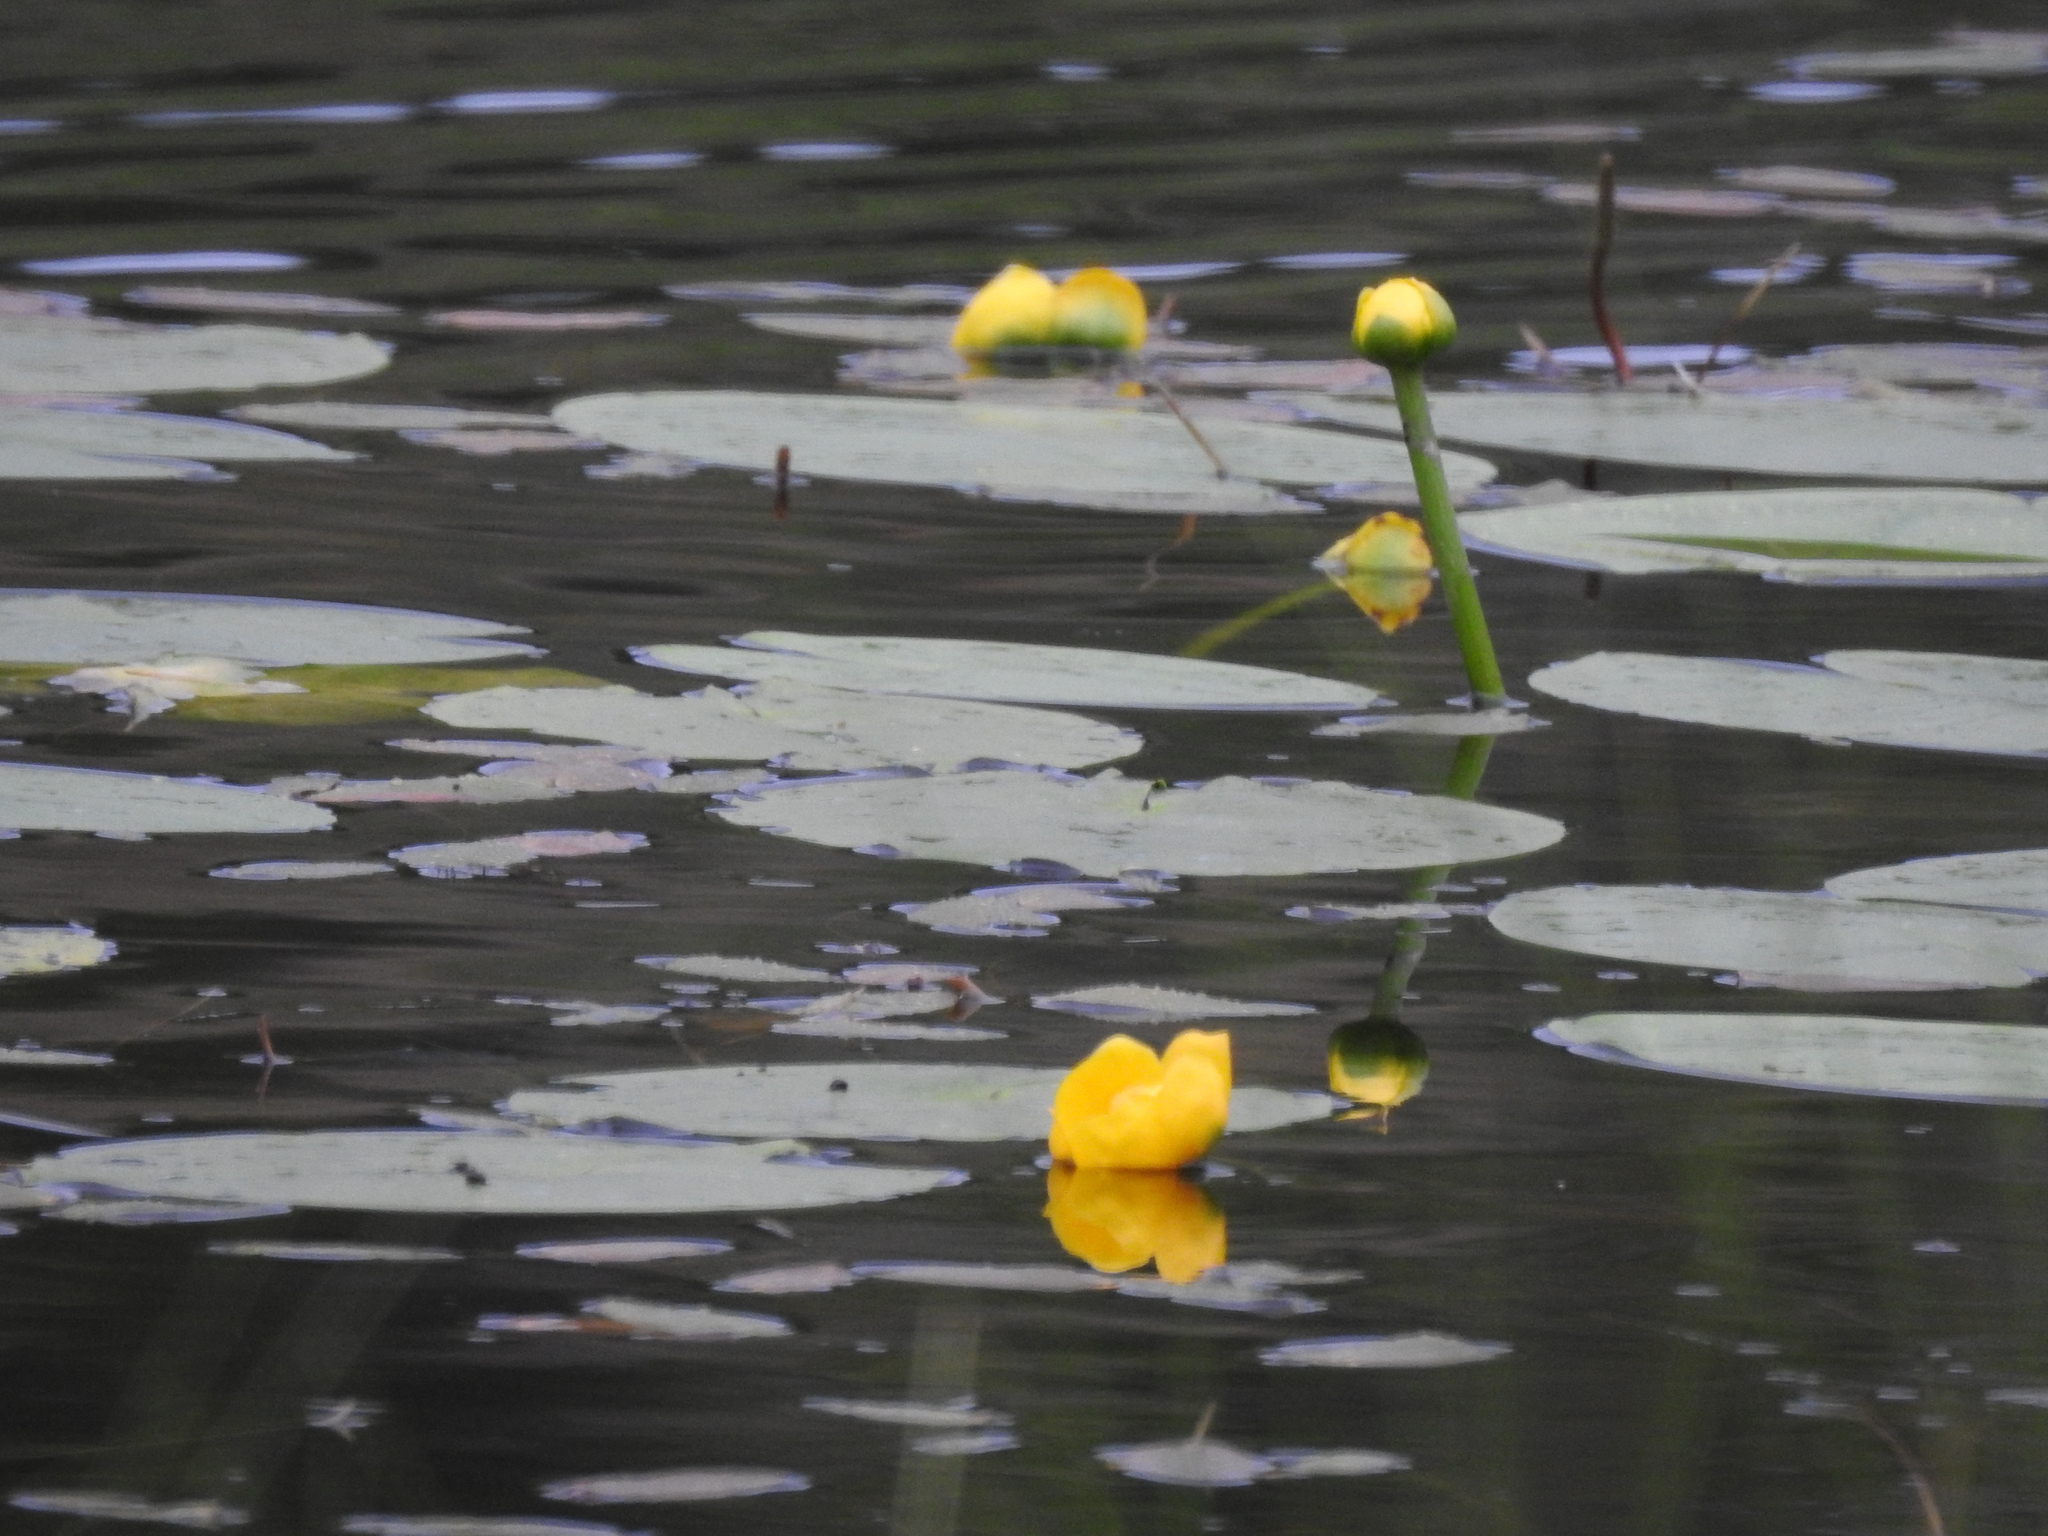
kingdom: Plantae
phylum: Tracheophyta
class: Magnoliopsida
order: Nymphaeales
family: Nymphaeaceae
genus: Nuphar
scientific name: Nuphar lutea
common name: Yellow water-lily
